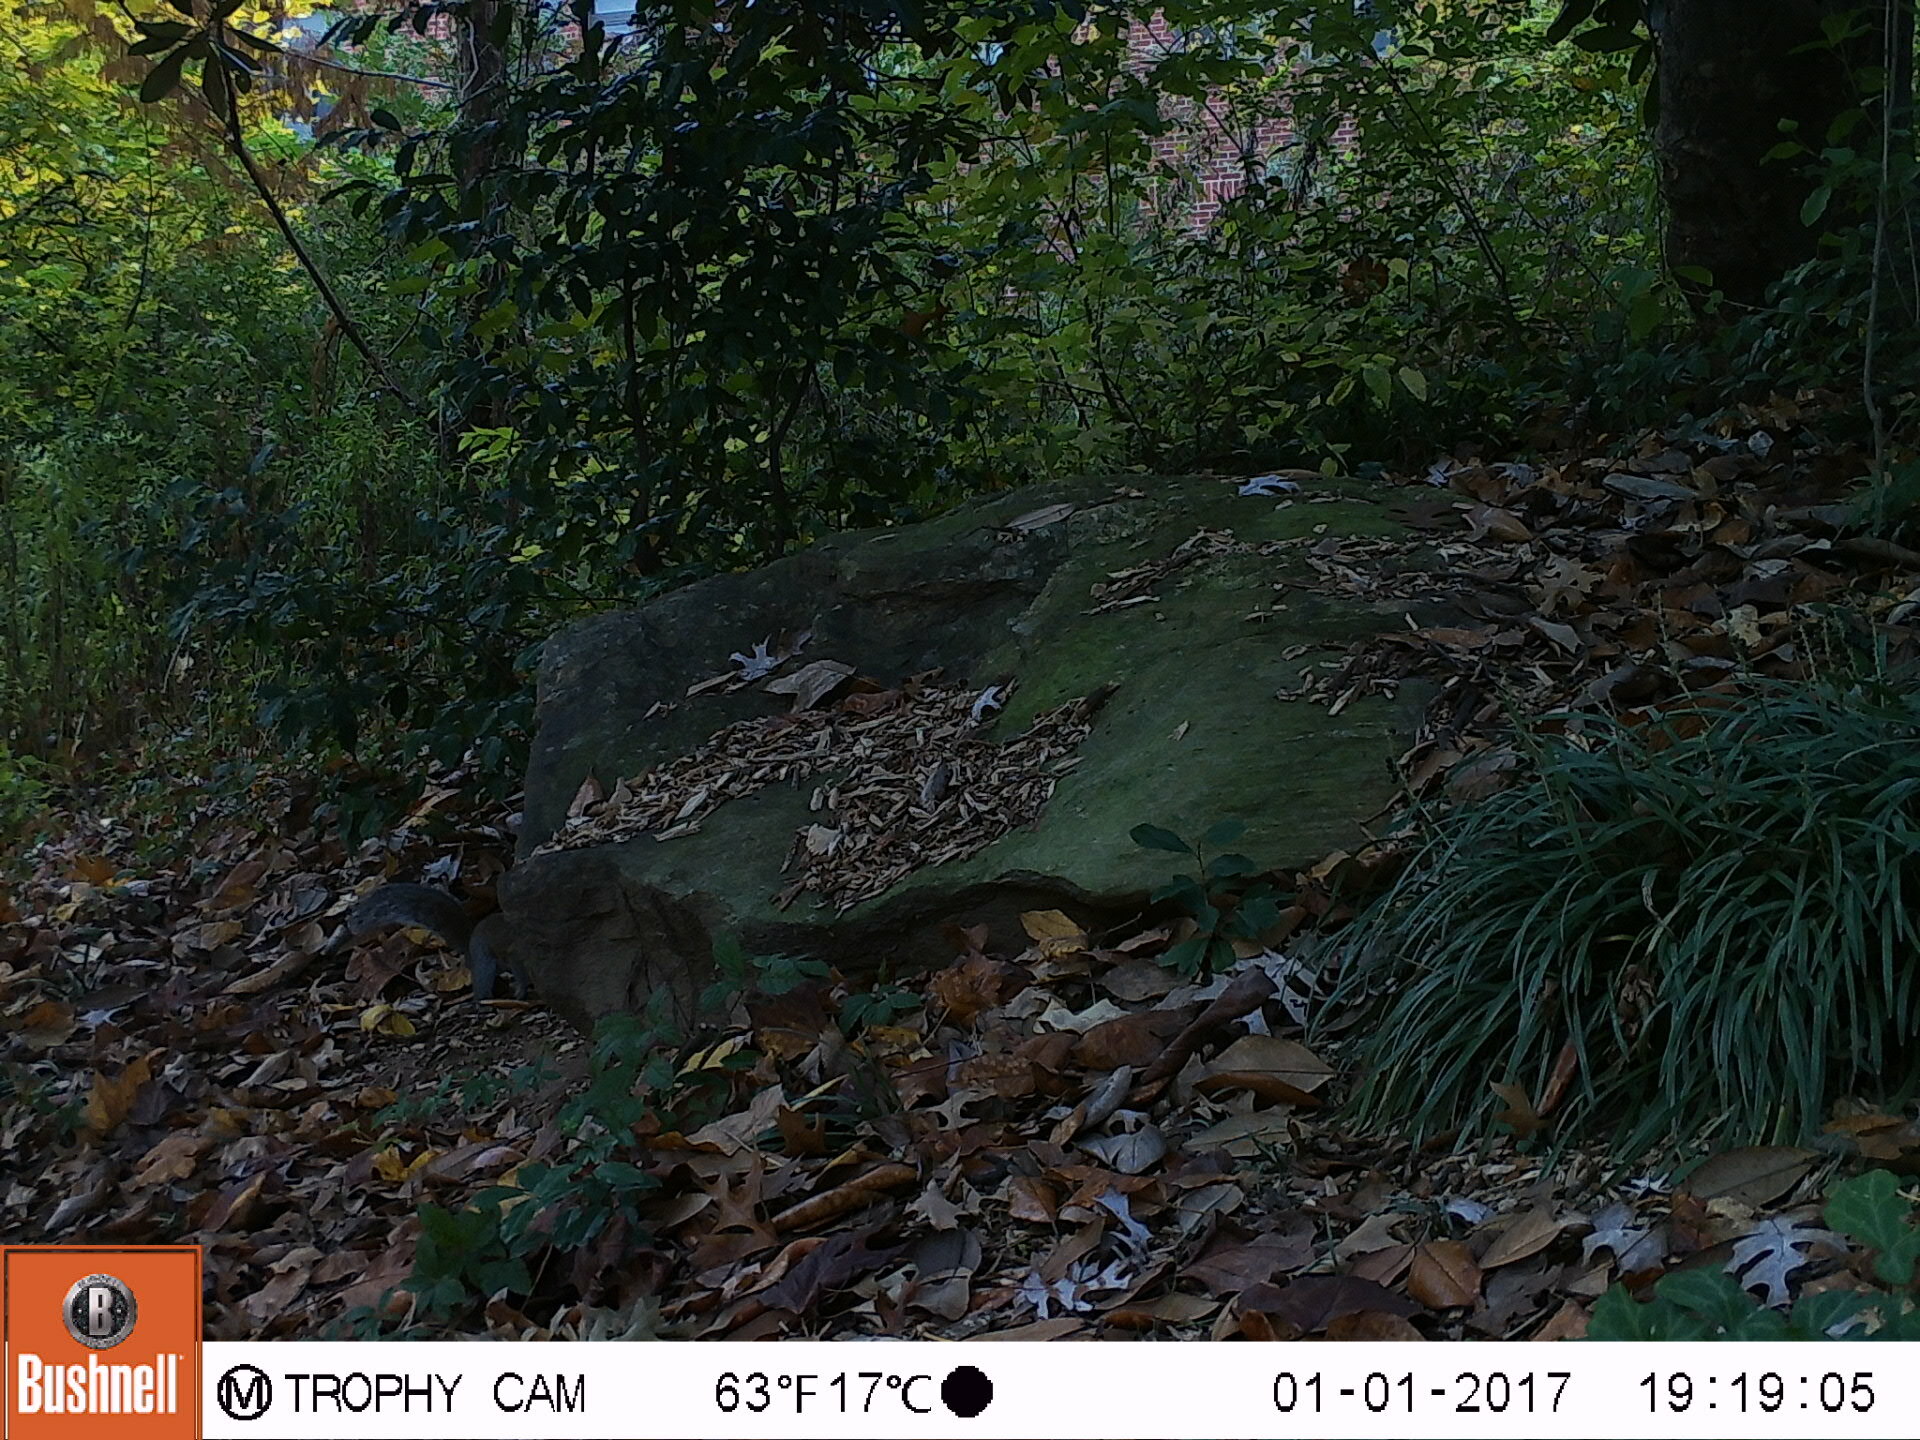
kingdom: Animalia
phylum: Chordata
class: Mammalia
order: Rodentia
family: Sciuridae
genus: Sciurus
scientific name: Sciurus carolinensis
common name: Eastern gray squirrel
